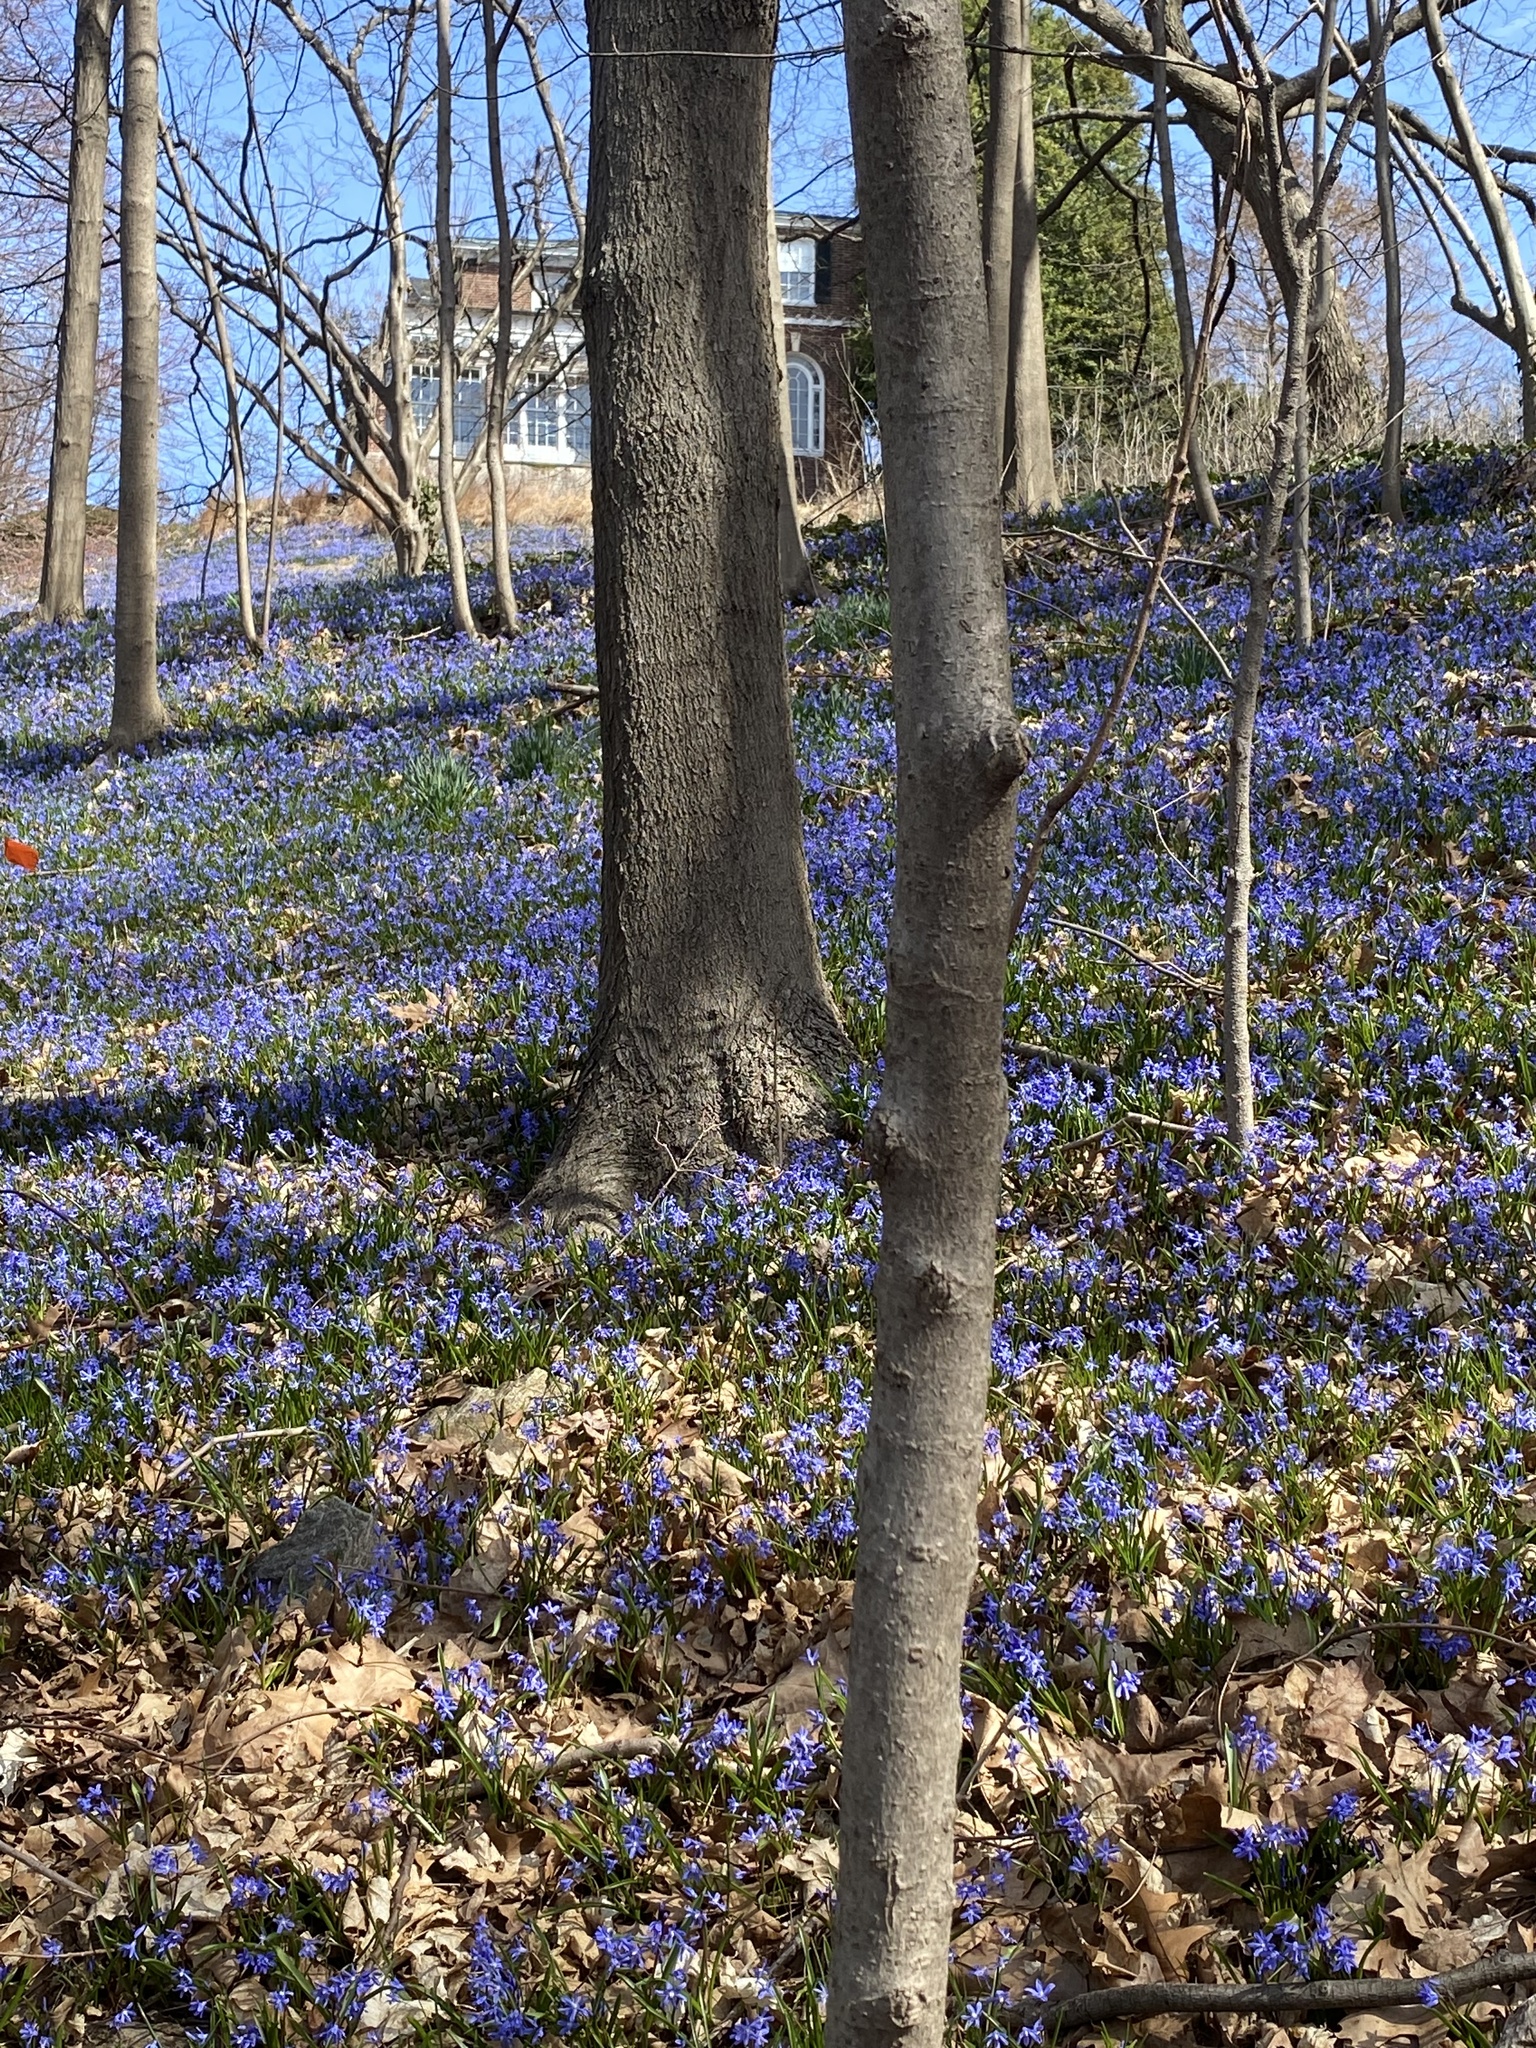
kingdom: Plantae
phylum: Tracheophyta
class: Liliopsida
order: Asparagales
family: Asparagaceae
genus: Scilla
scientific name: Scilla sardensis
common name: Lesser glory-of-the-snow
